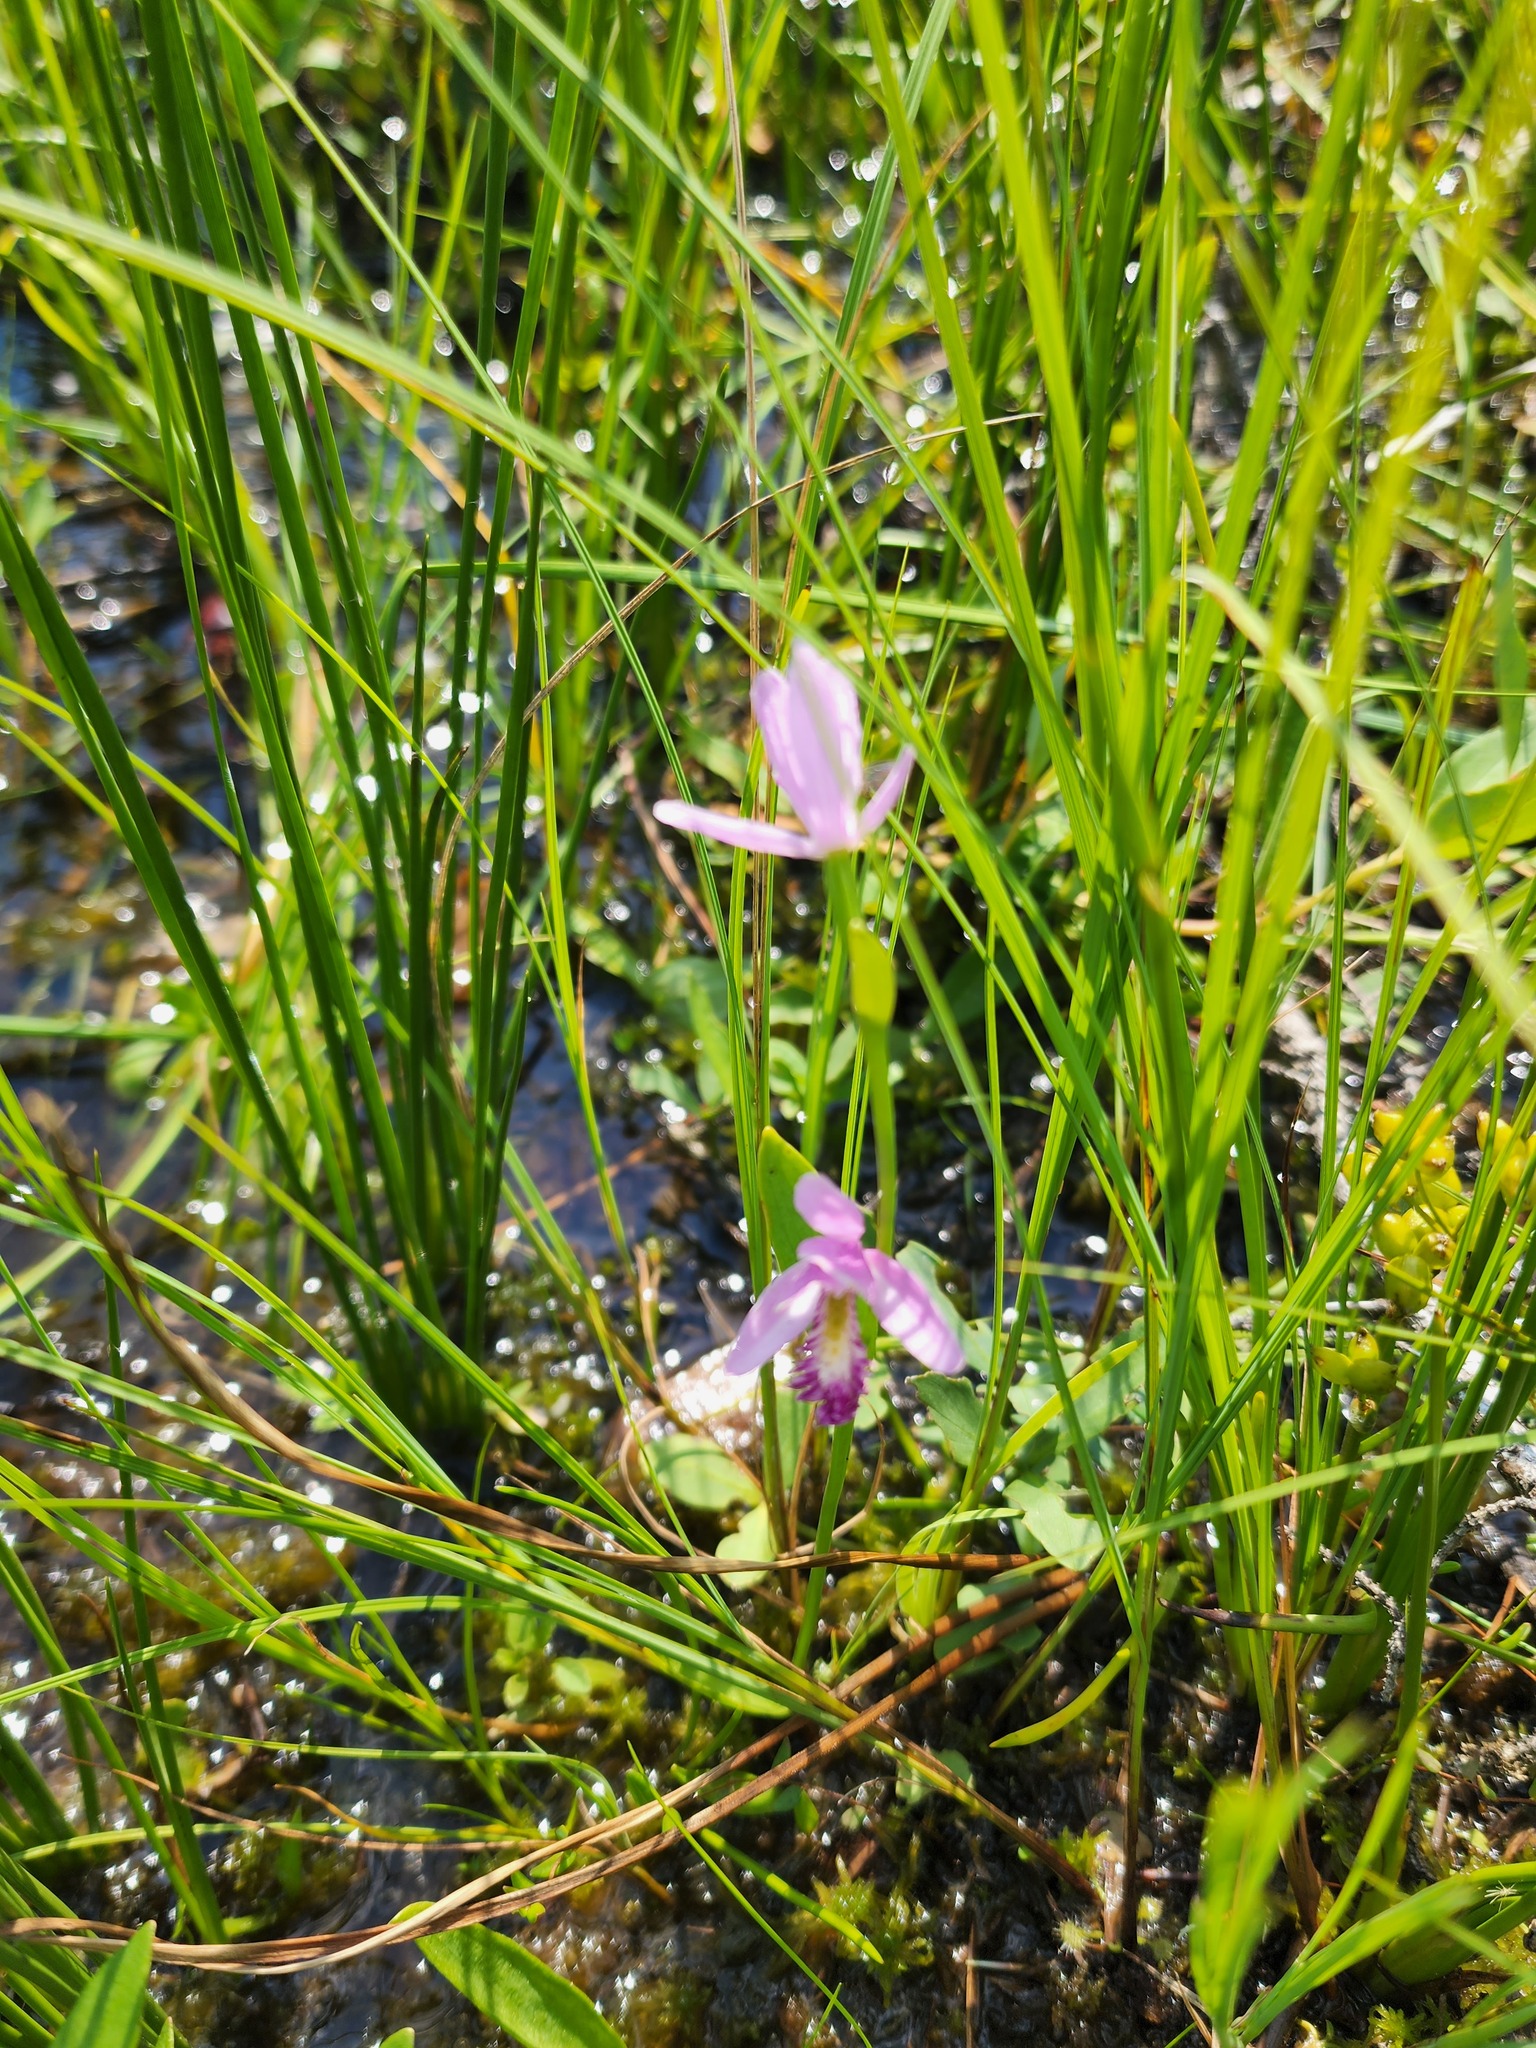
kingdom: Plantae
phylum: Tracheophyta
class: Liliopsida
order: Asparagales
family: Orchidaceae
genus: Pogonia
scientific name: Pogonia ophioglossoides
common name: Rose pogonia
